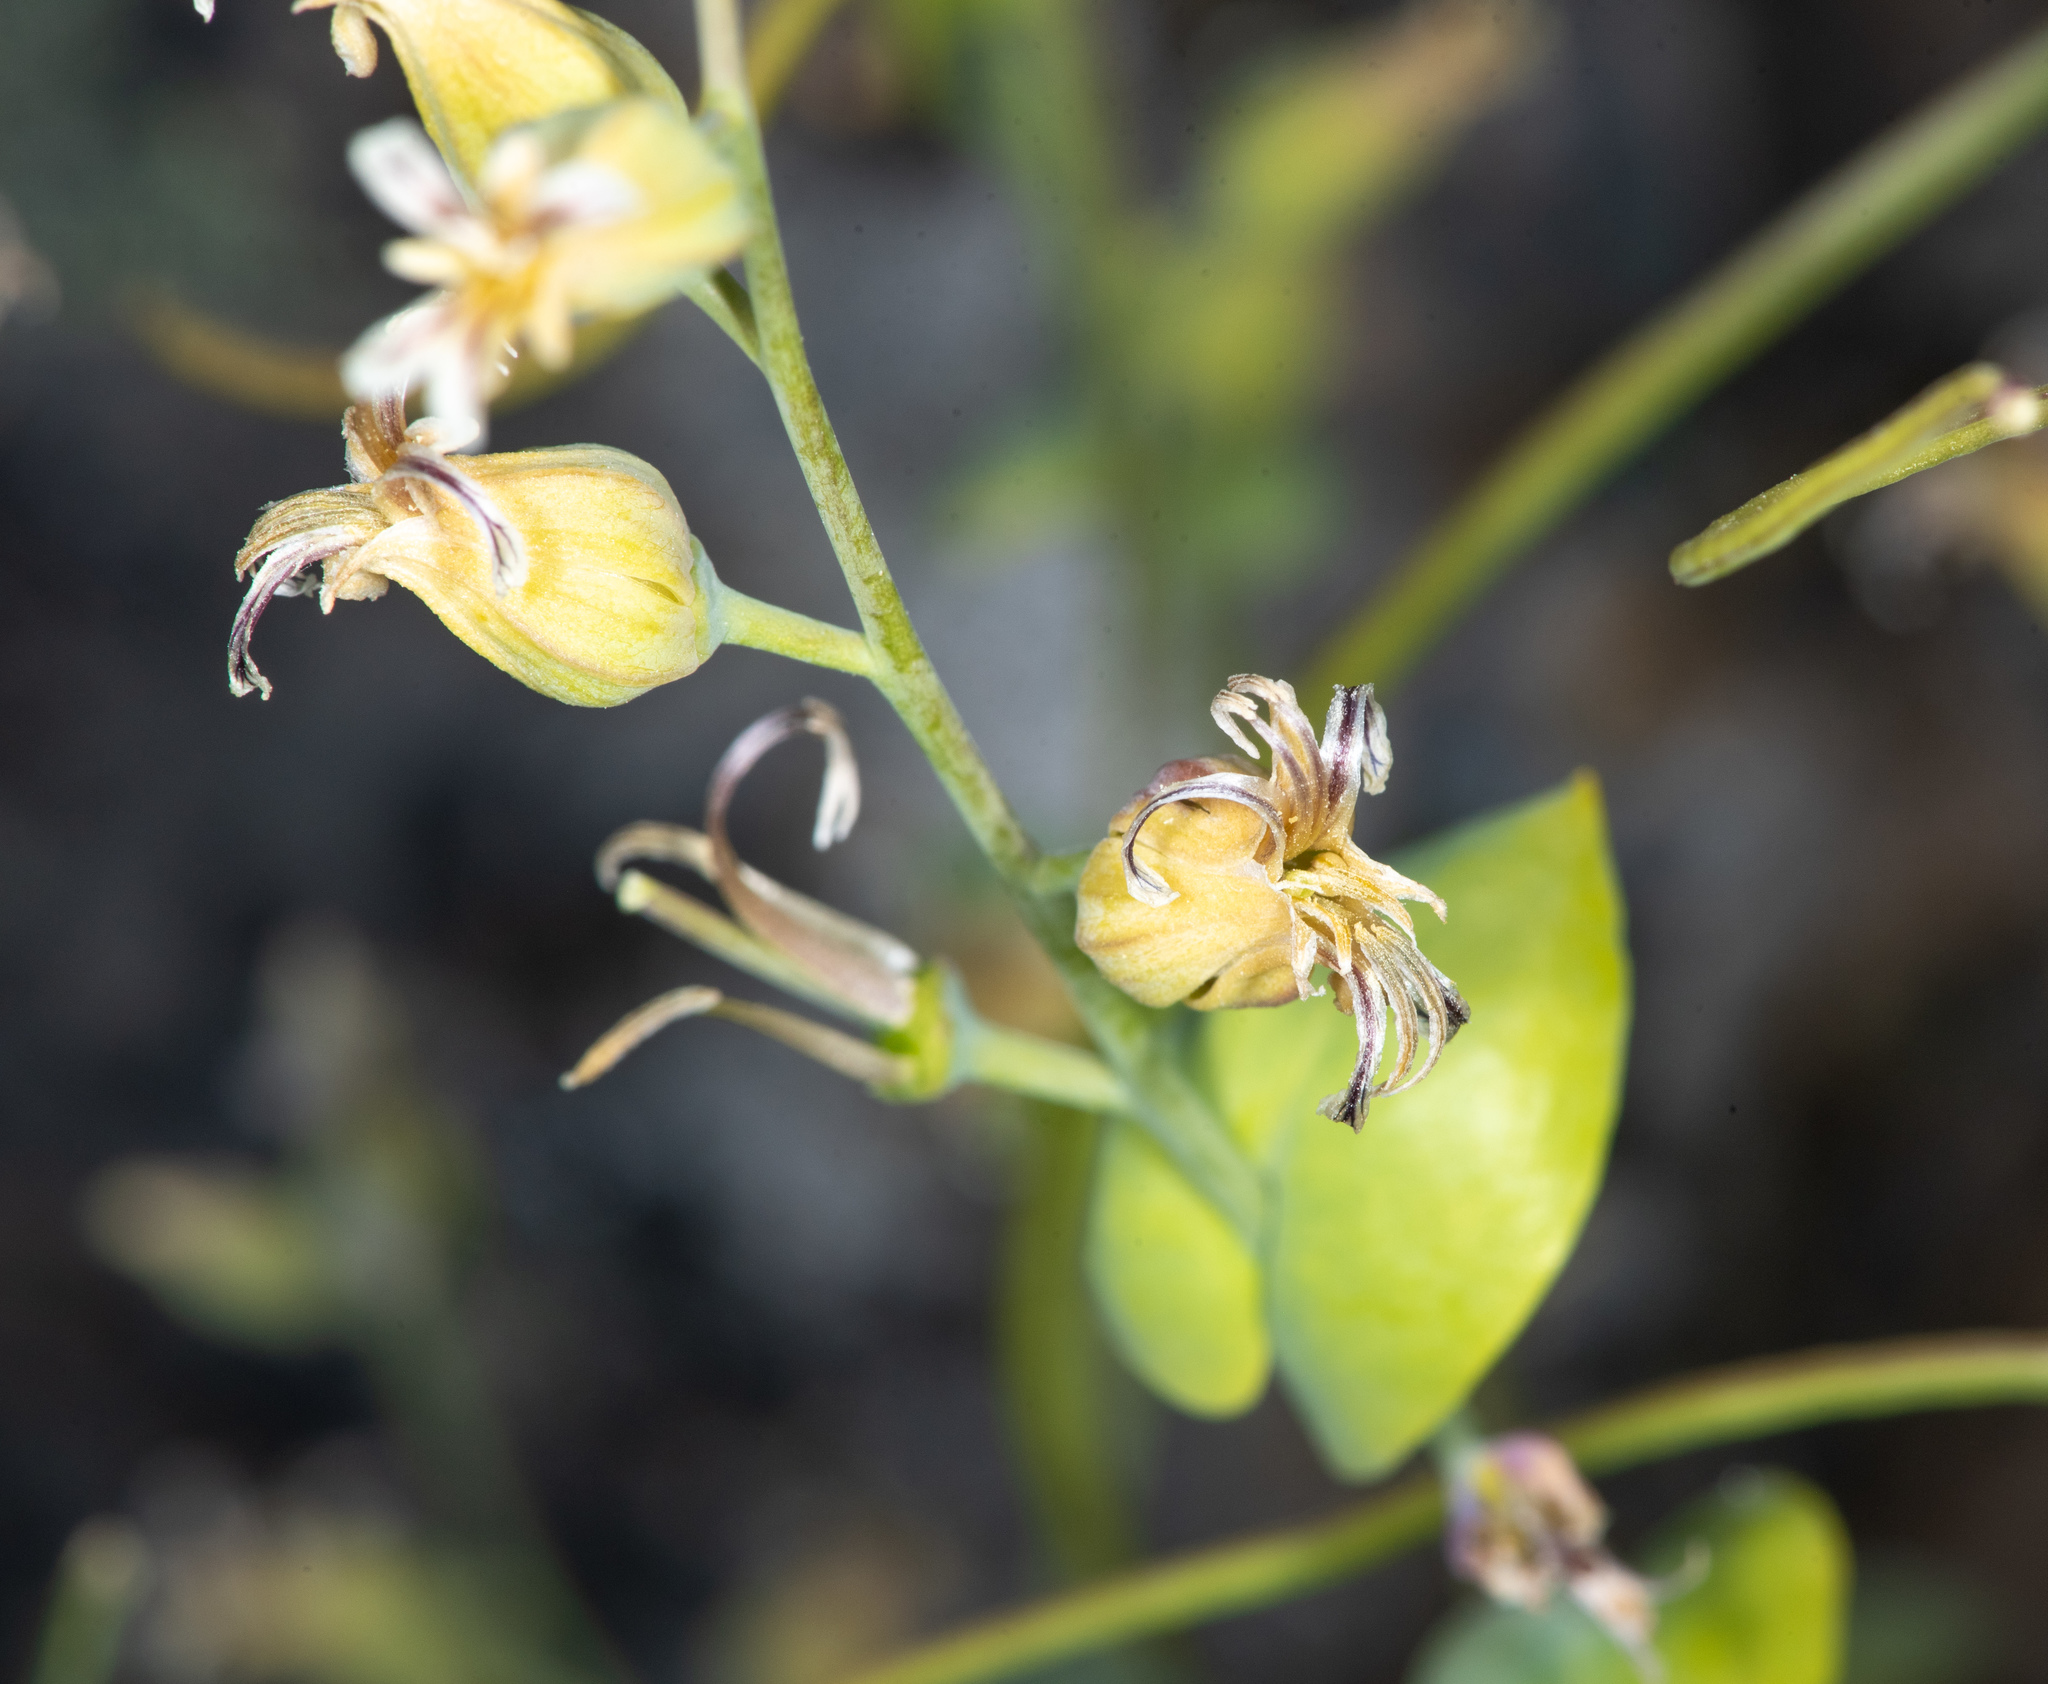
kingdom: Plantae
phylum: Tracheophyta
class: Magnoliopsida
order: Brassicales
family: Brassicaceae
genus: Streptanthus
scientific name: Streptanthus tortuosus
